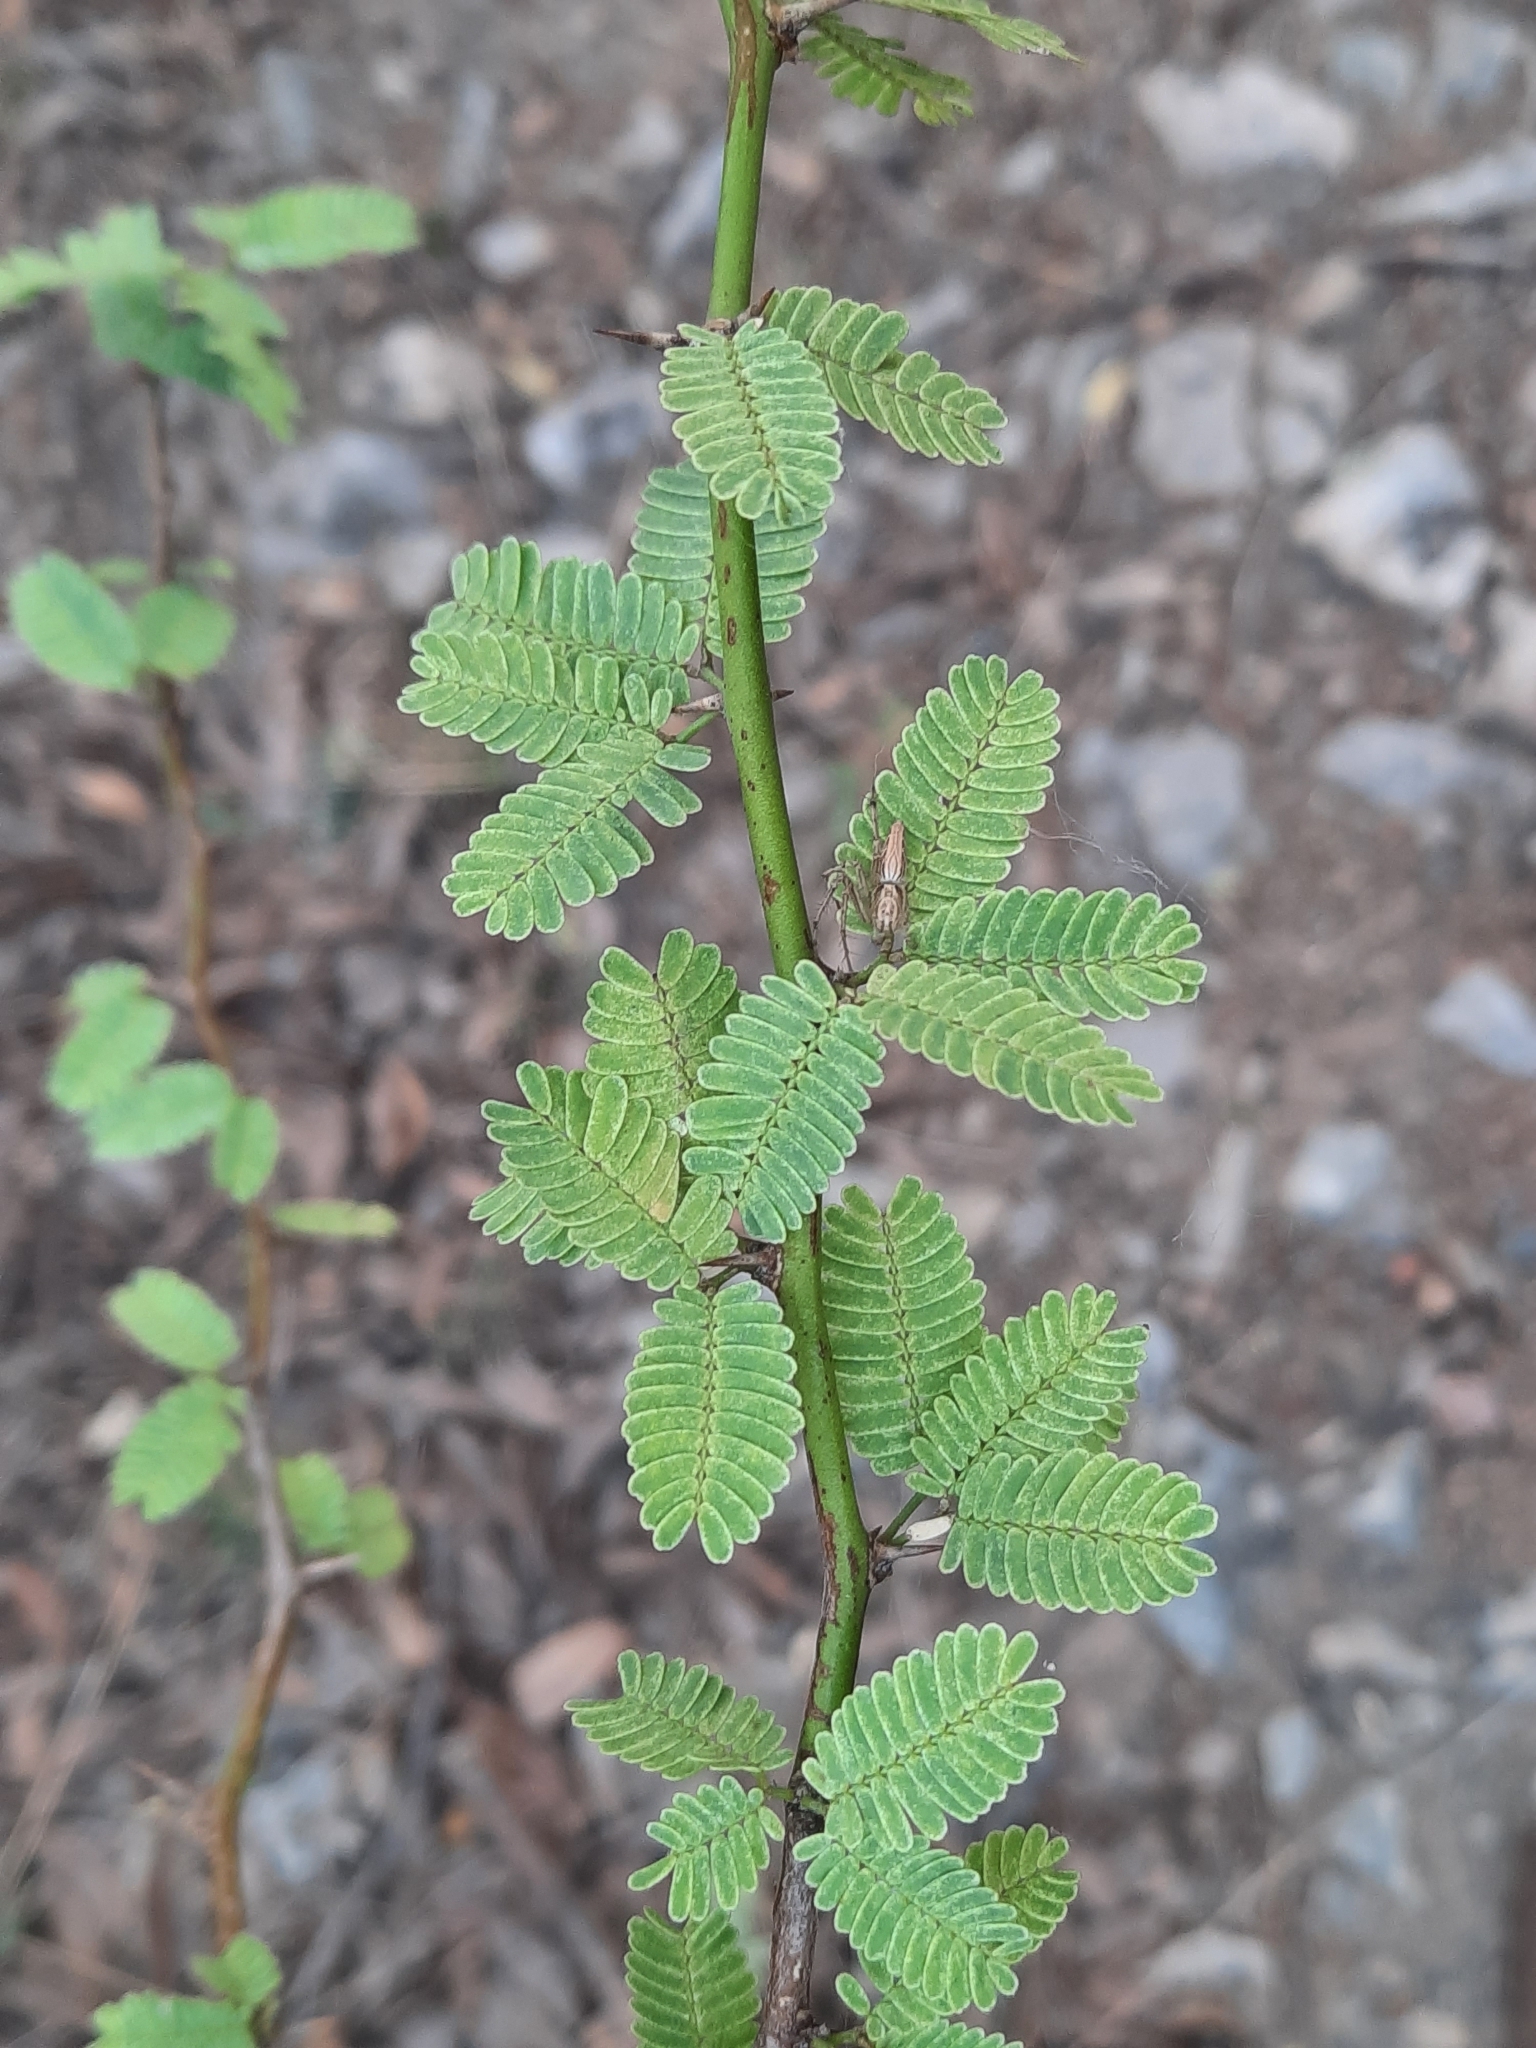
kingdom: Plantae
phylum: Tracheophyta
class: Magnoliopsida
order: Fabales
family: Fabaceae
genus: Prosopis
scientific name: Prosopis juliflora
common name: Mesquite
